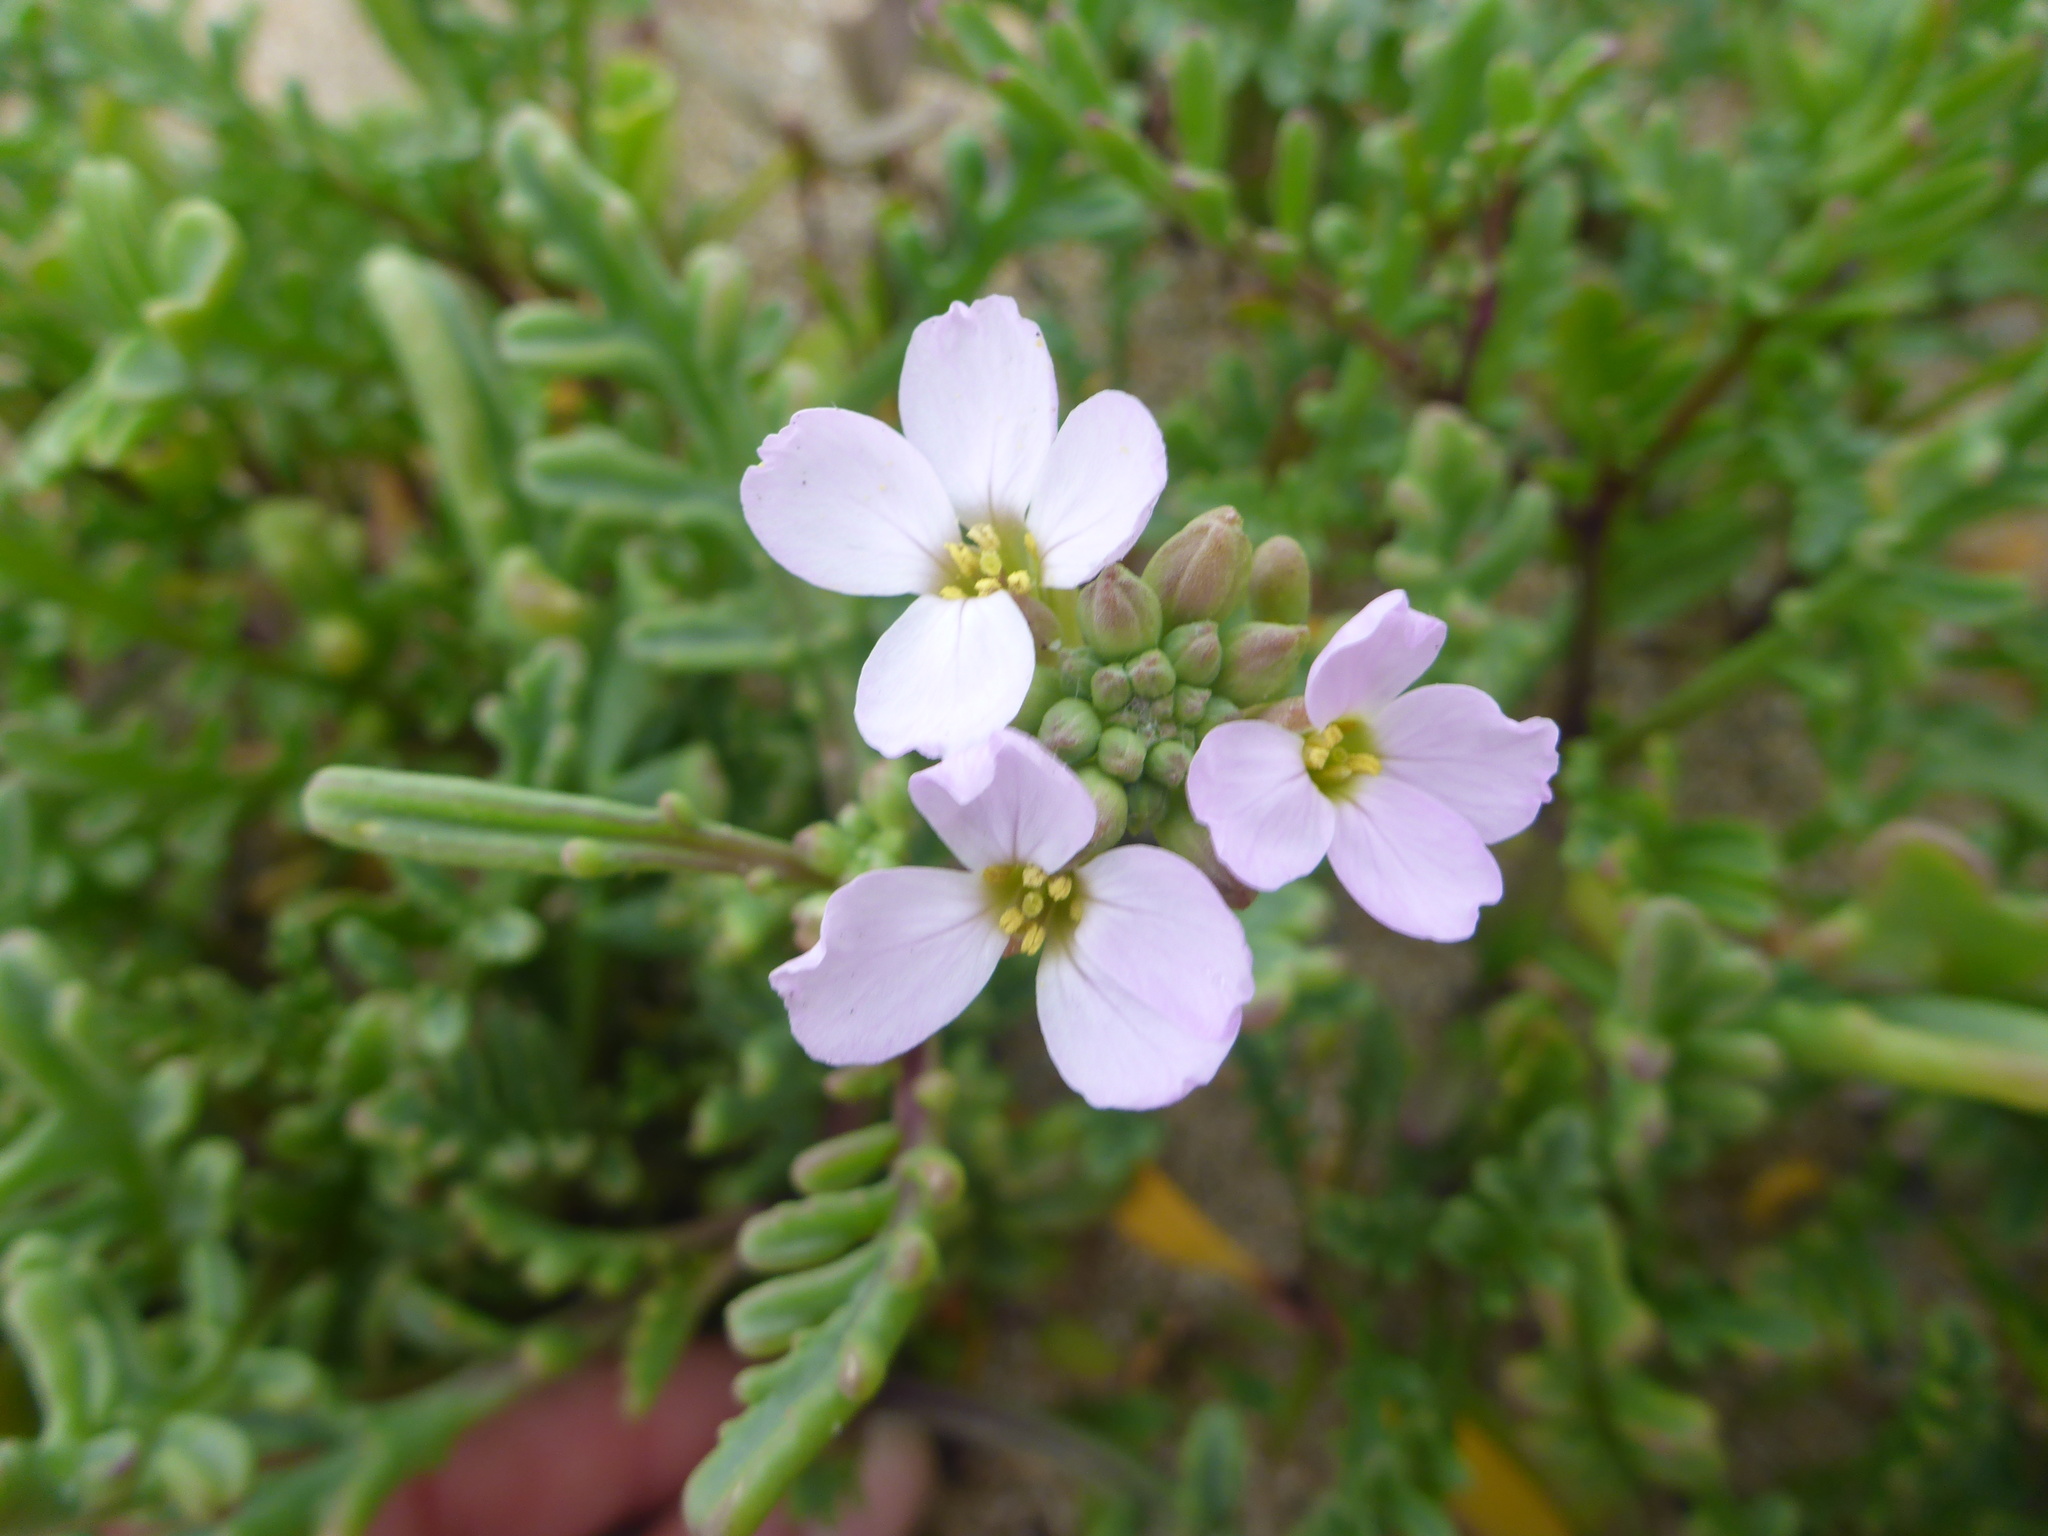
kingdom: Plantae
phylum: Tracheophyta
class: Magnoliopsida
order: Brassicales
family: Brassicaceae
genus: Cakile
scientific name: Cakile maritima
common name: Sea rocket
